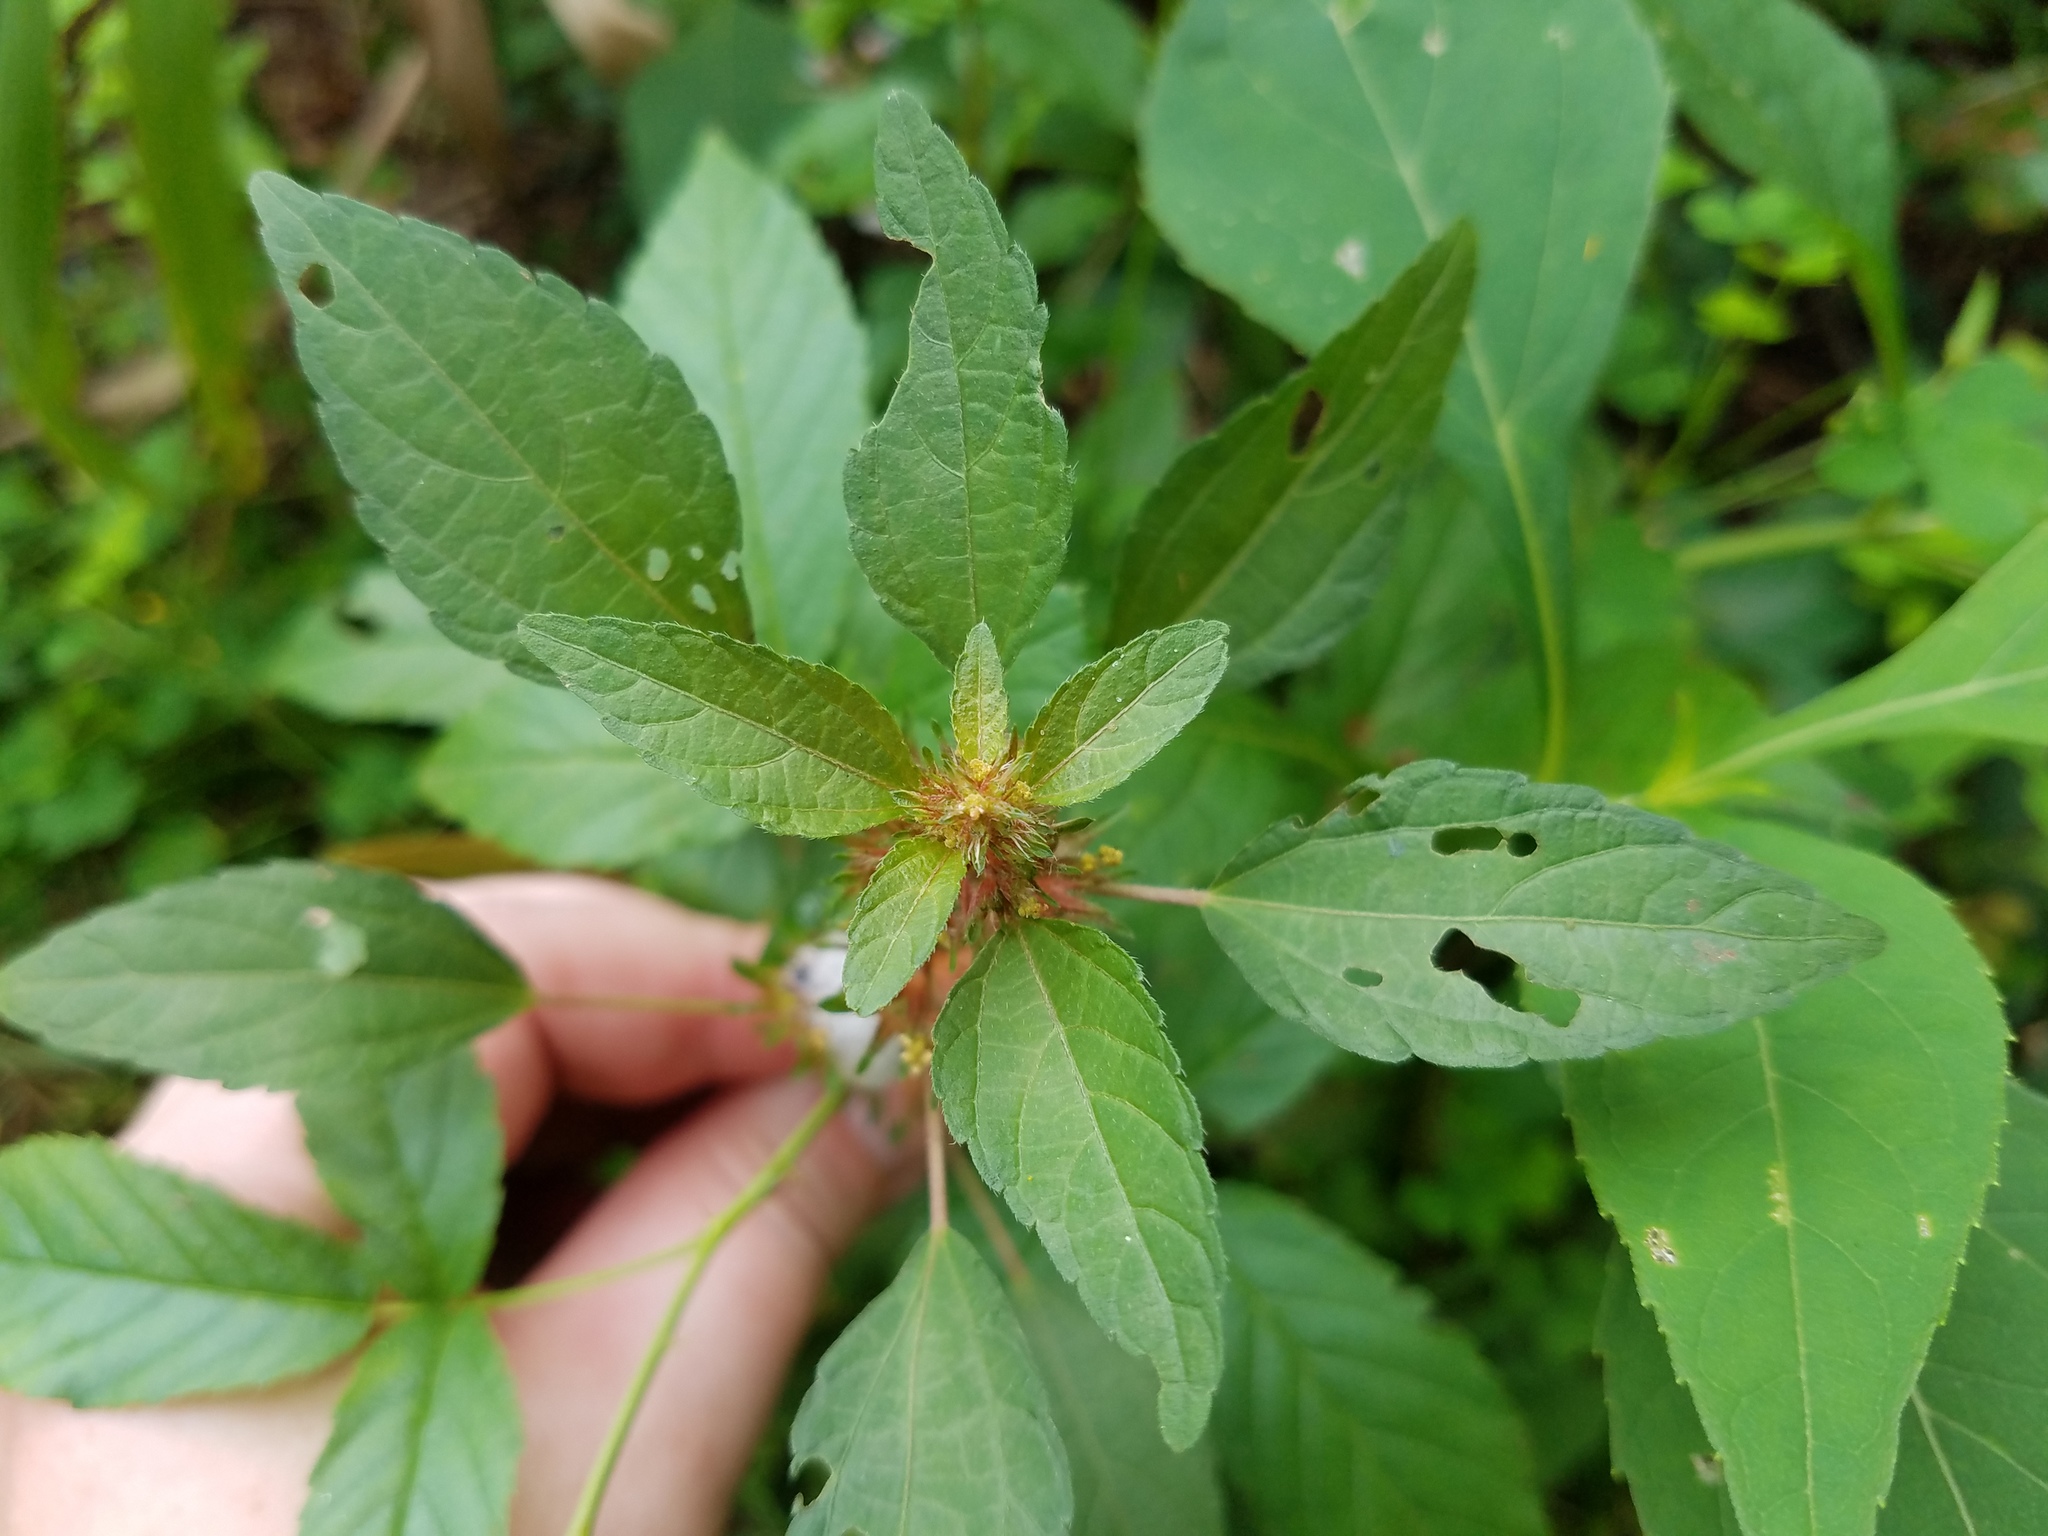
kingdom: Plantae
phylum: Tracheophyta
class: Magnoliopsida
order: Malpighiales
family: Euphorbiaceae
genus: Acalypha
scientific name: Acalypha rhomboidea
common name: Rhombic copperleaf
